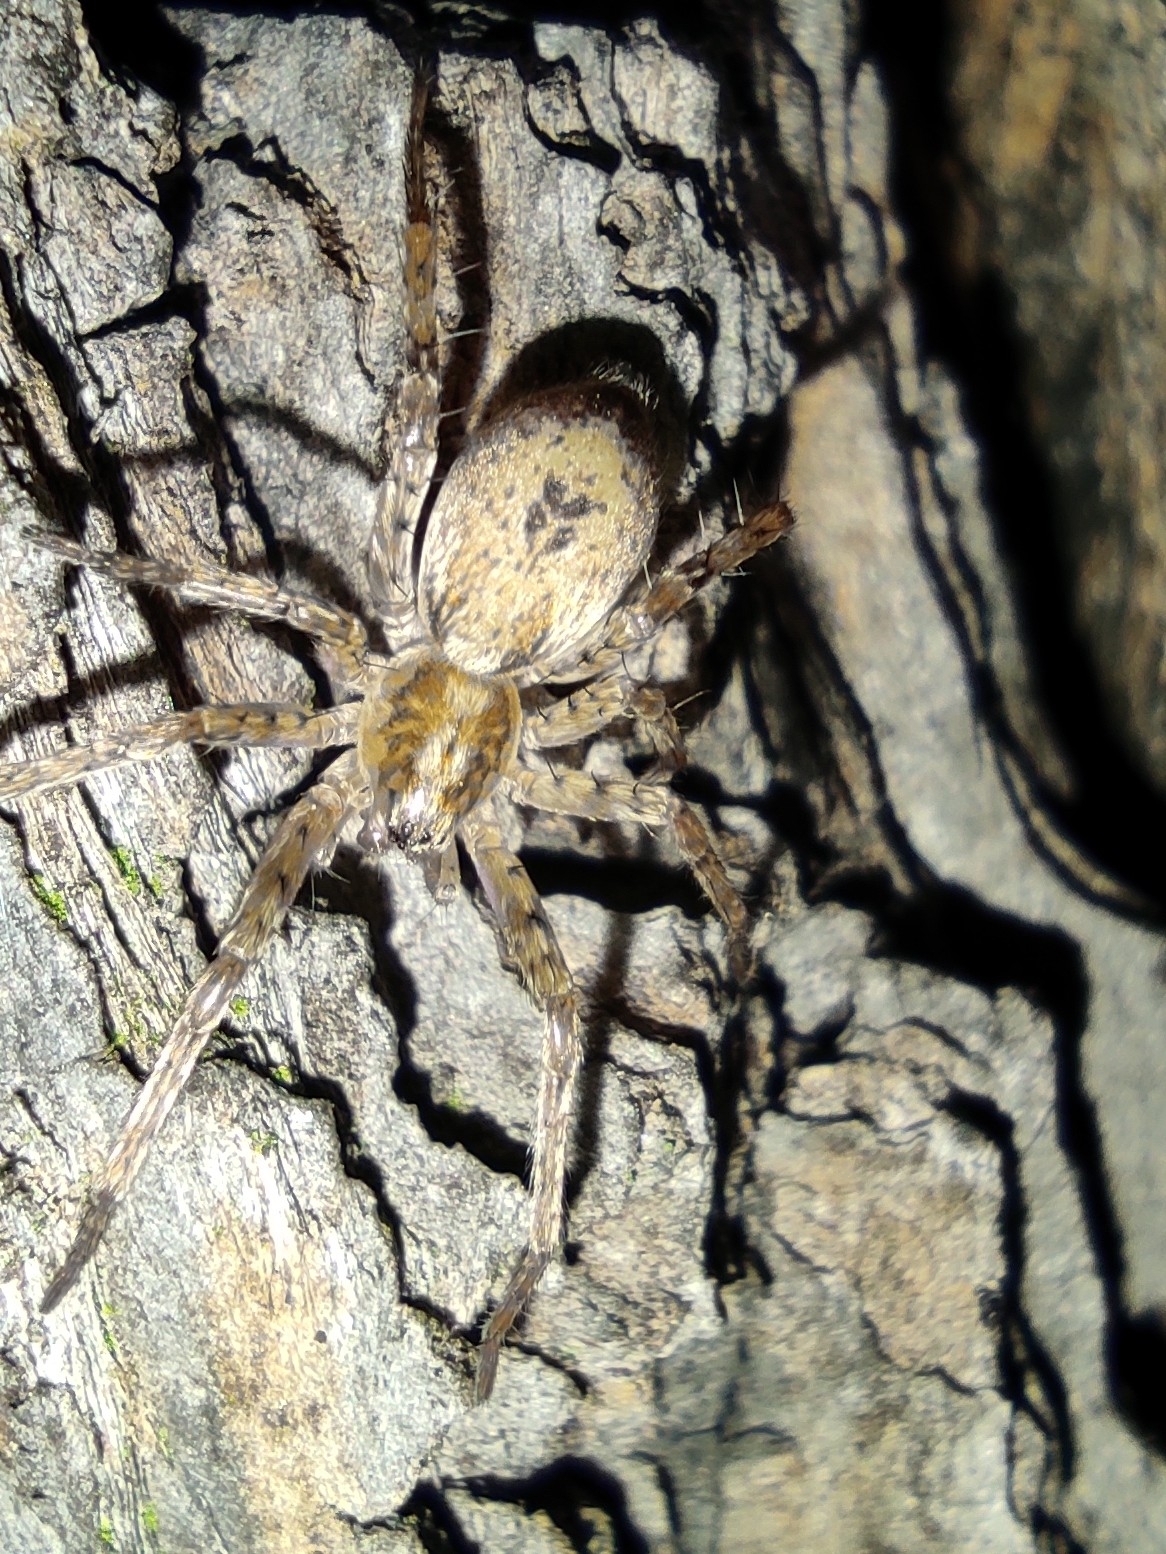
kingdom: Animalia
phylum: Arthropoda
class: Arachnida
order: Araneae
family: Anyphaenidae
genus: Anyphaena
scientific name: Anyphaena accentuata
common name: Buzzing spider
